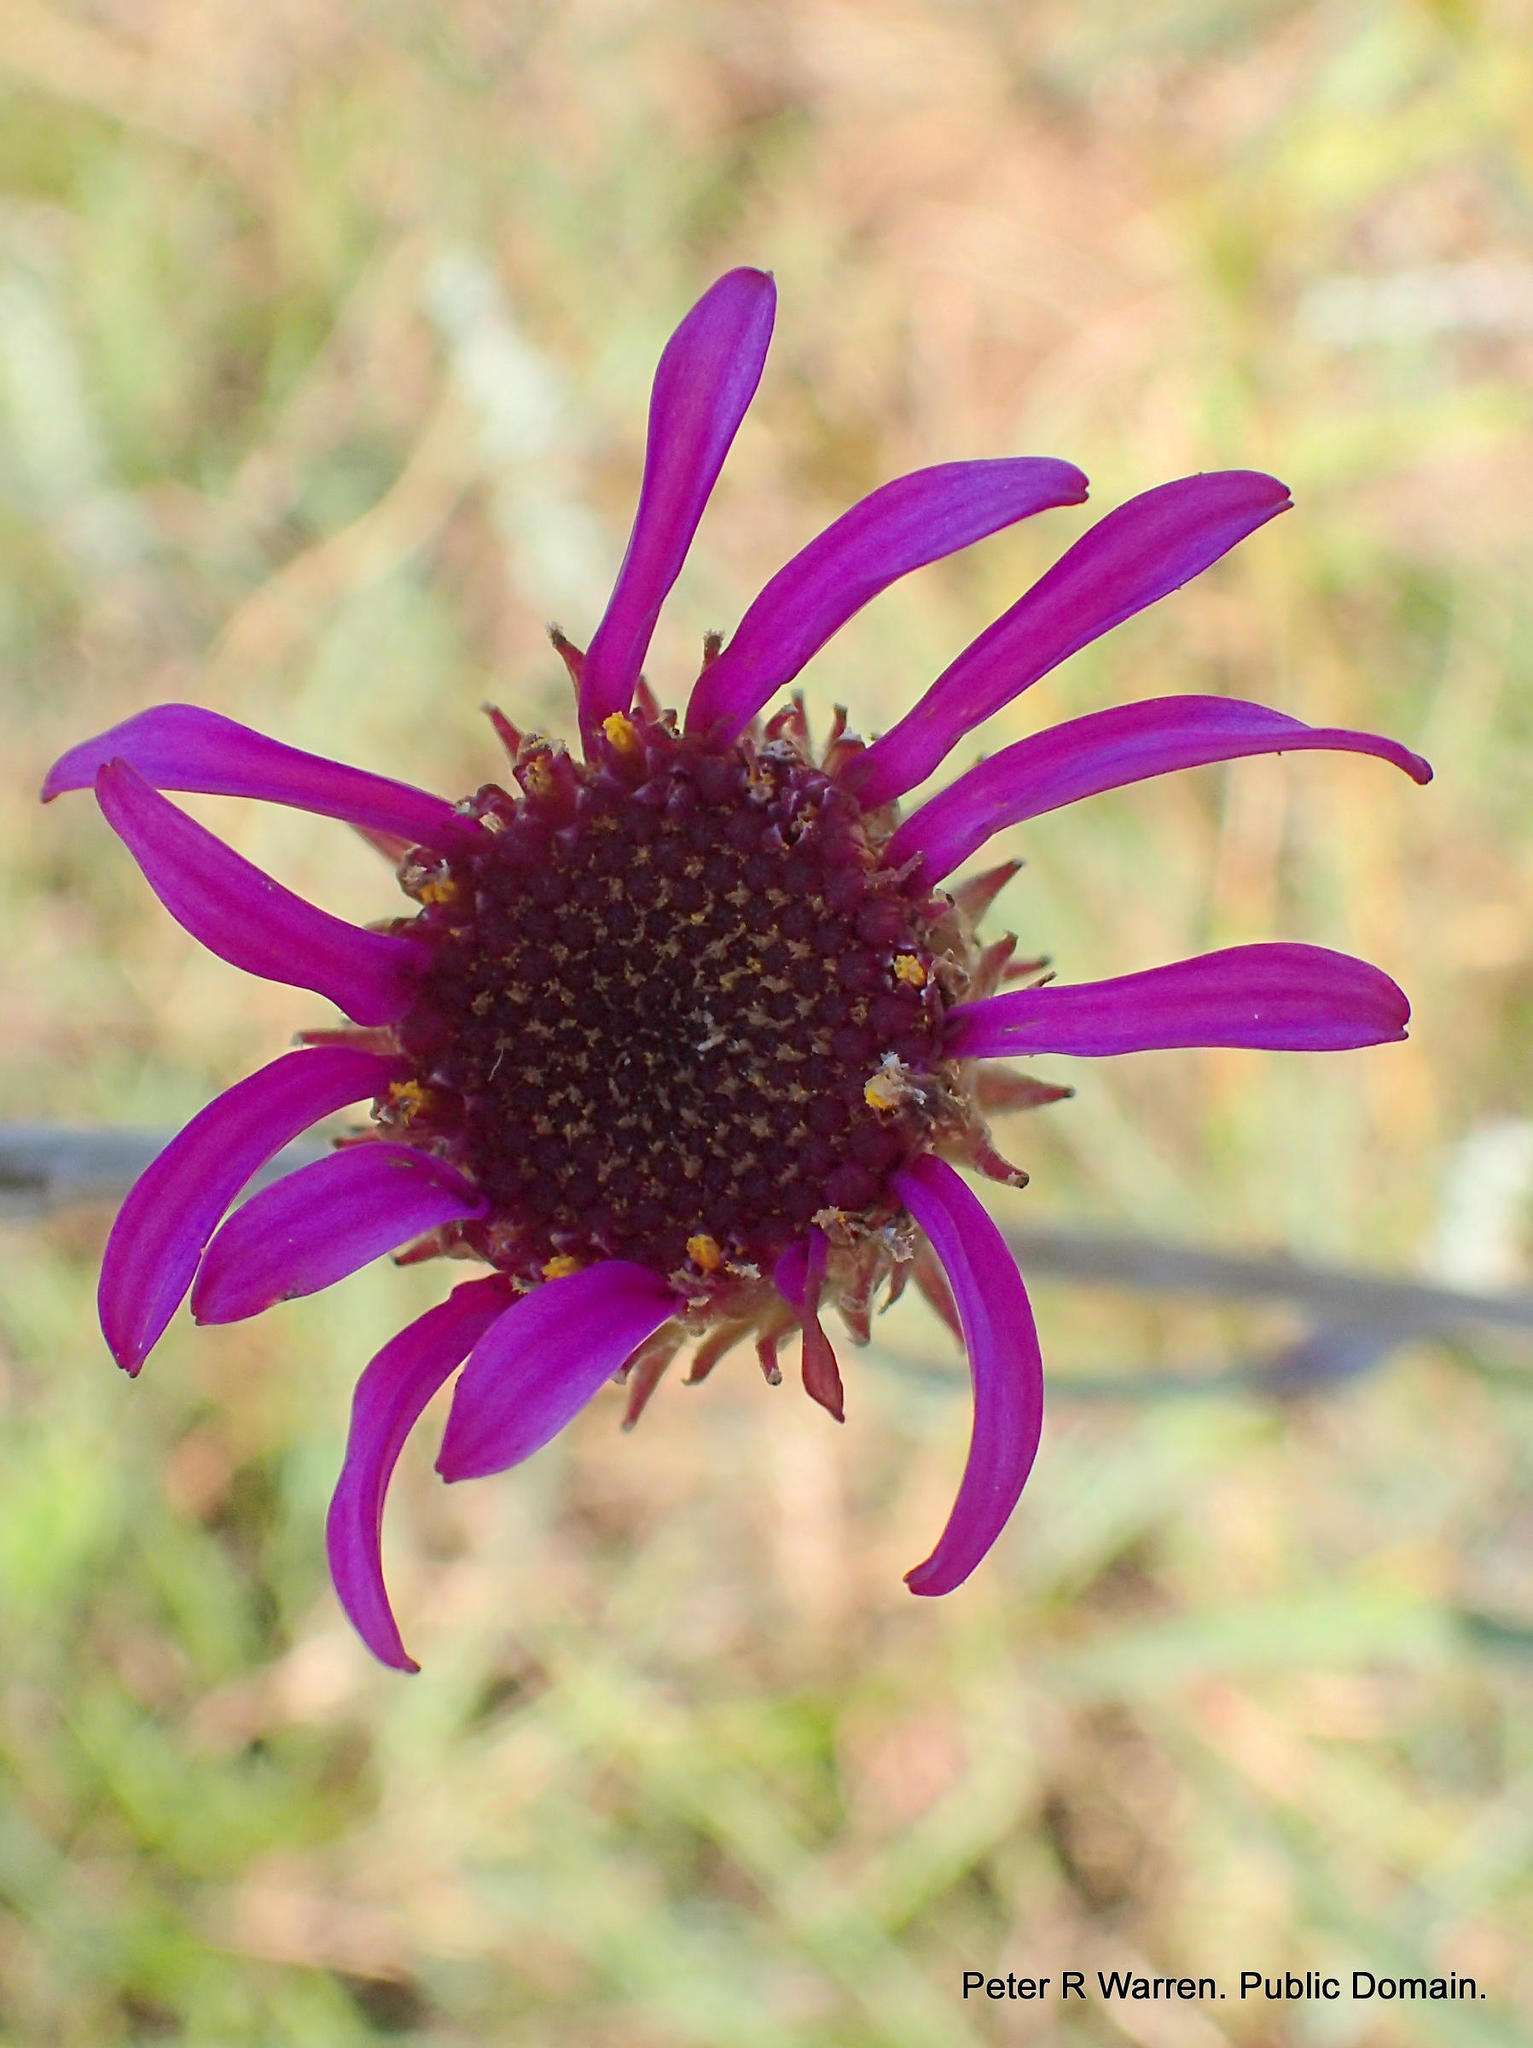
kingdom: Plantae
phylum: Tracheophyta
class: Magnoliopsida
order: Asterales
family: Asteraceae
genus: Senecio
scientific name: Senecio dregeanus
